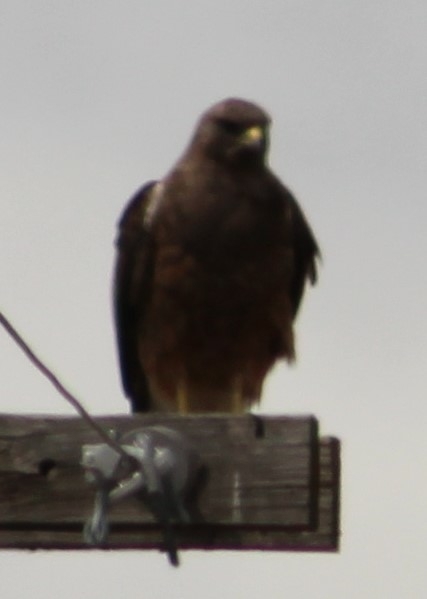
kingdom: Animalia
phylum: Chordata
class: Aves
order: Accipitriformes
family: Accipitridae
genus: Buteo
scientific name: Buteo swainsoni
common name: Swainson's hawk
